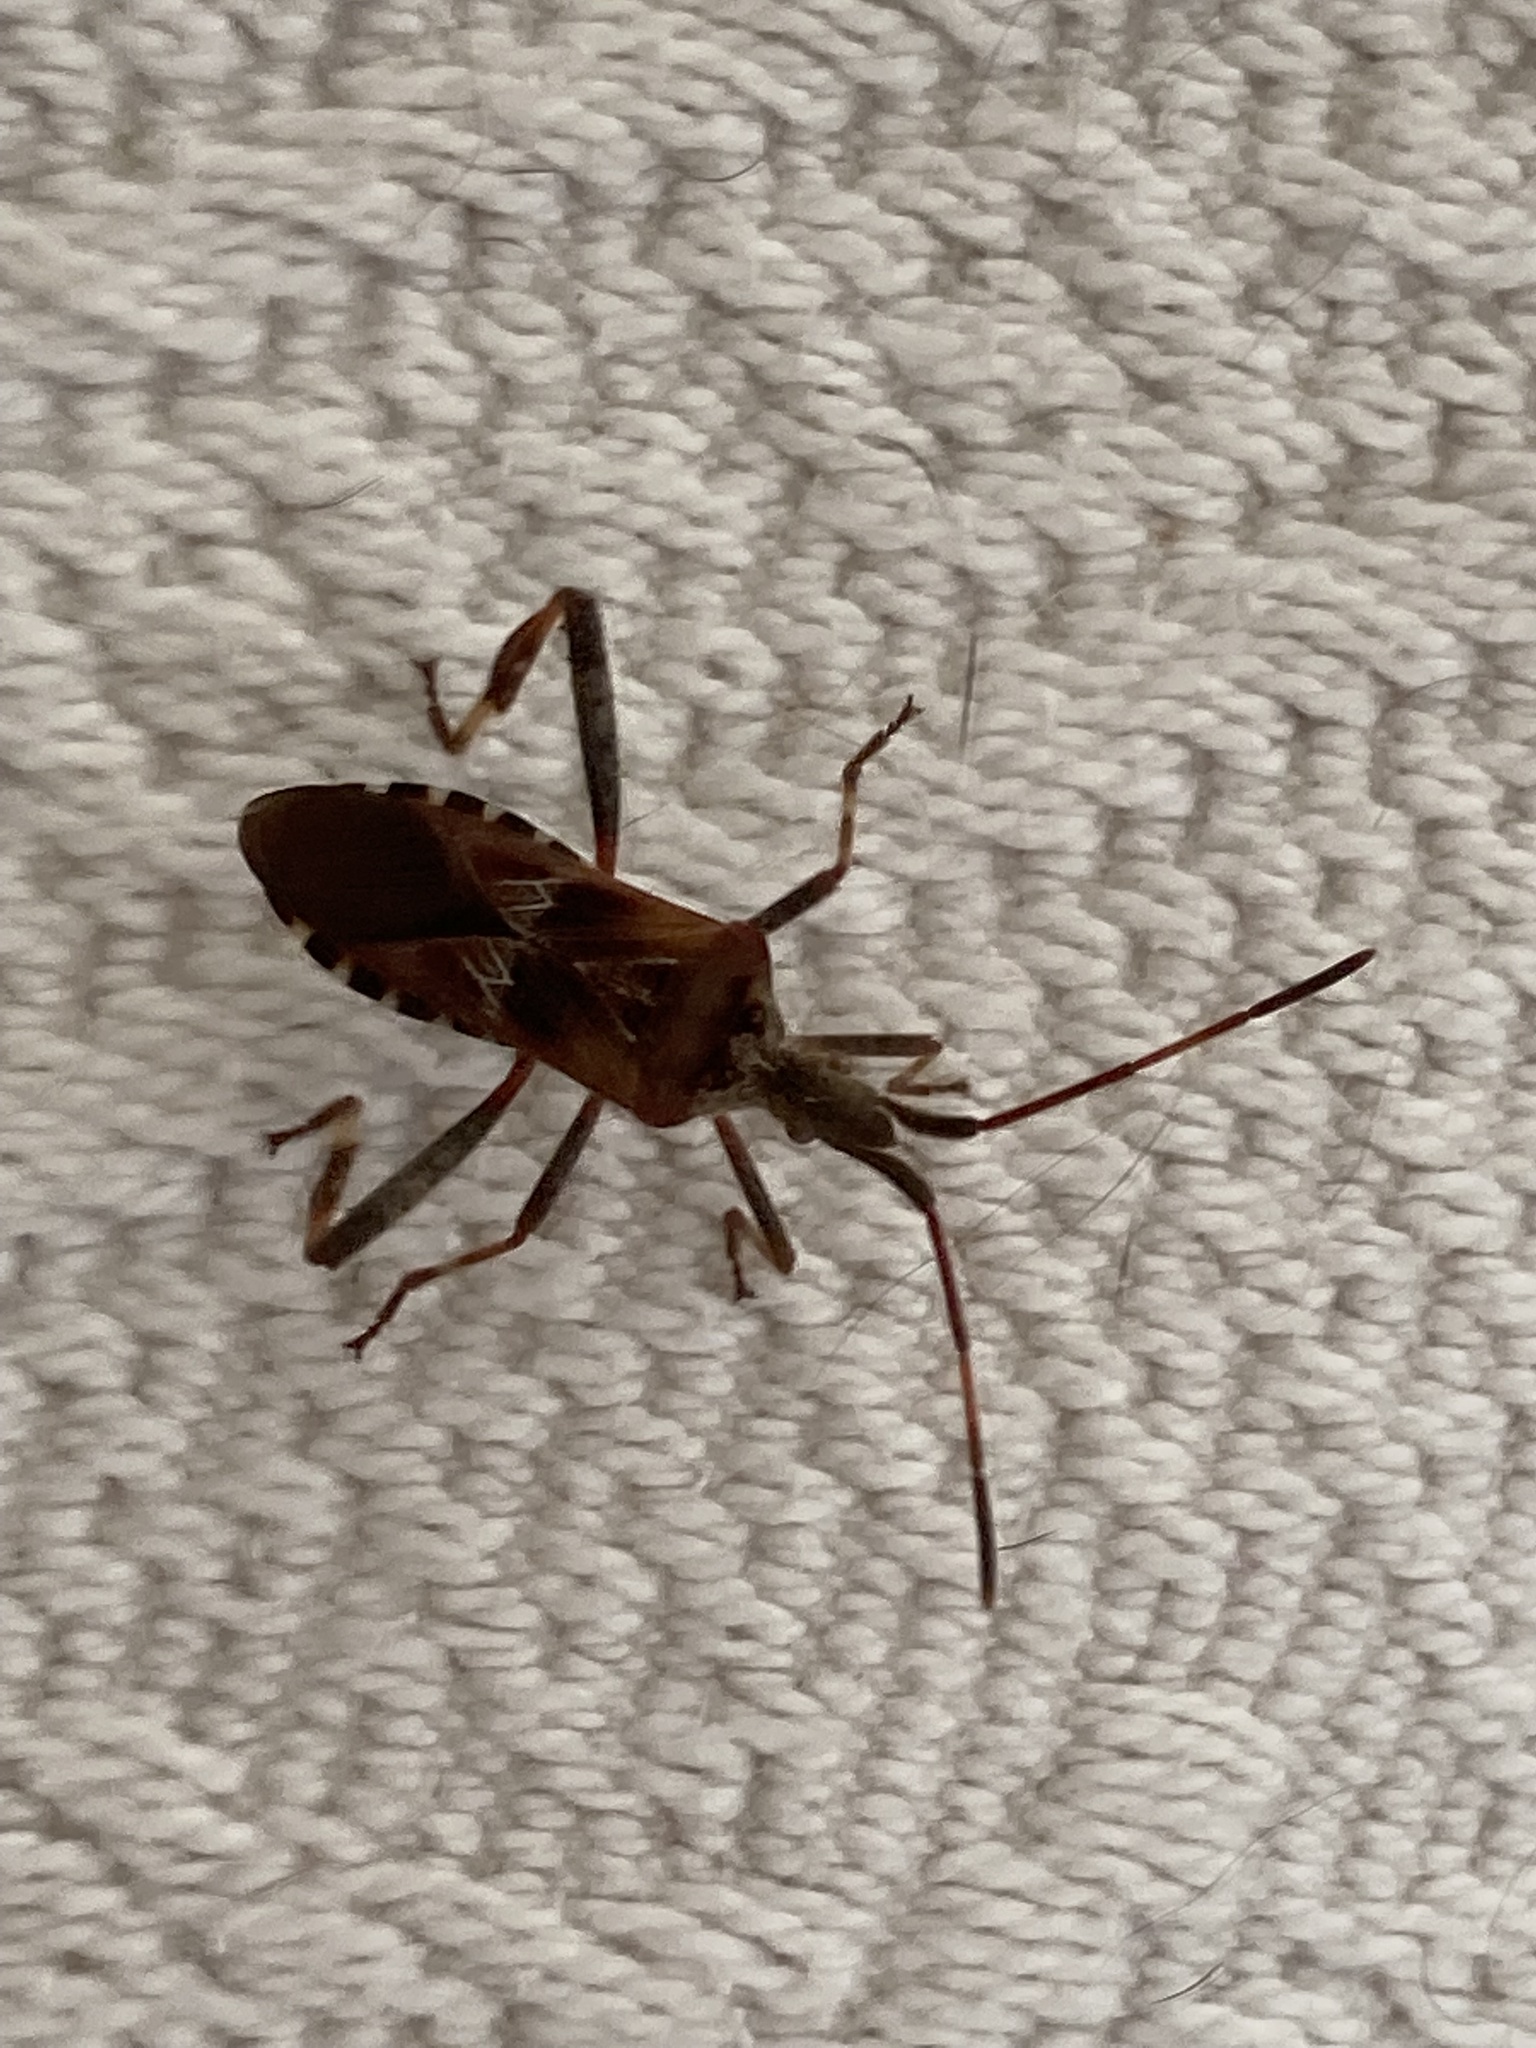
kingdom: Animalia
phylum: Arthropoda
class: Insecta
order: Hemiptera
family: Coreidae
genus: Leptoglossus
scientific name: Leptoglossus occidentalis
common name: Western conifer-seed bug
